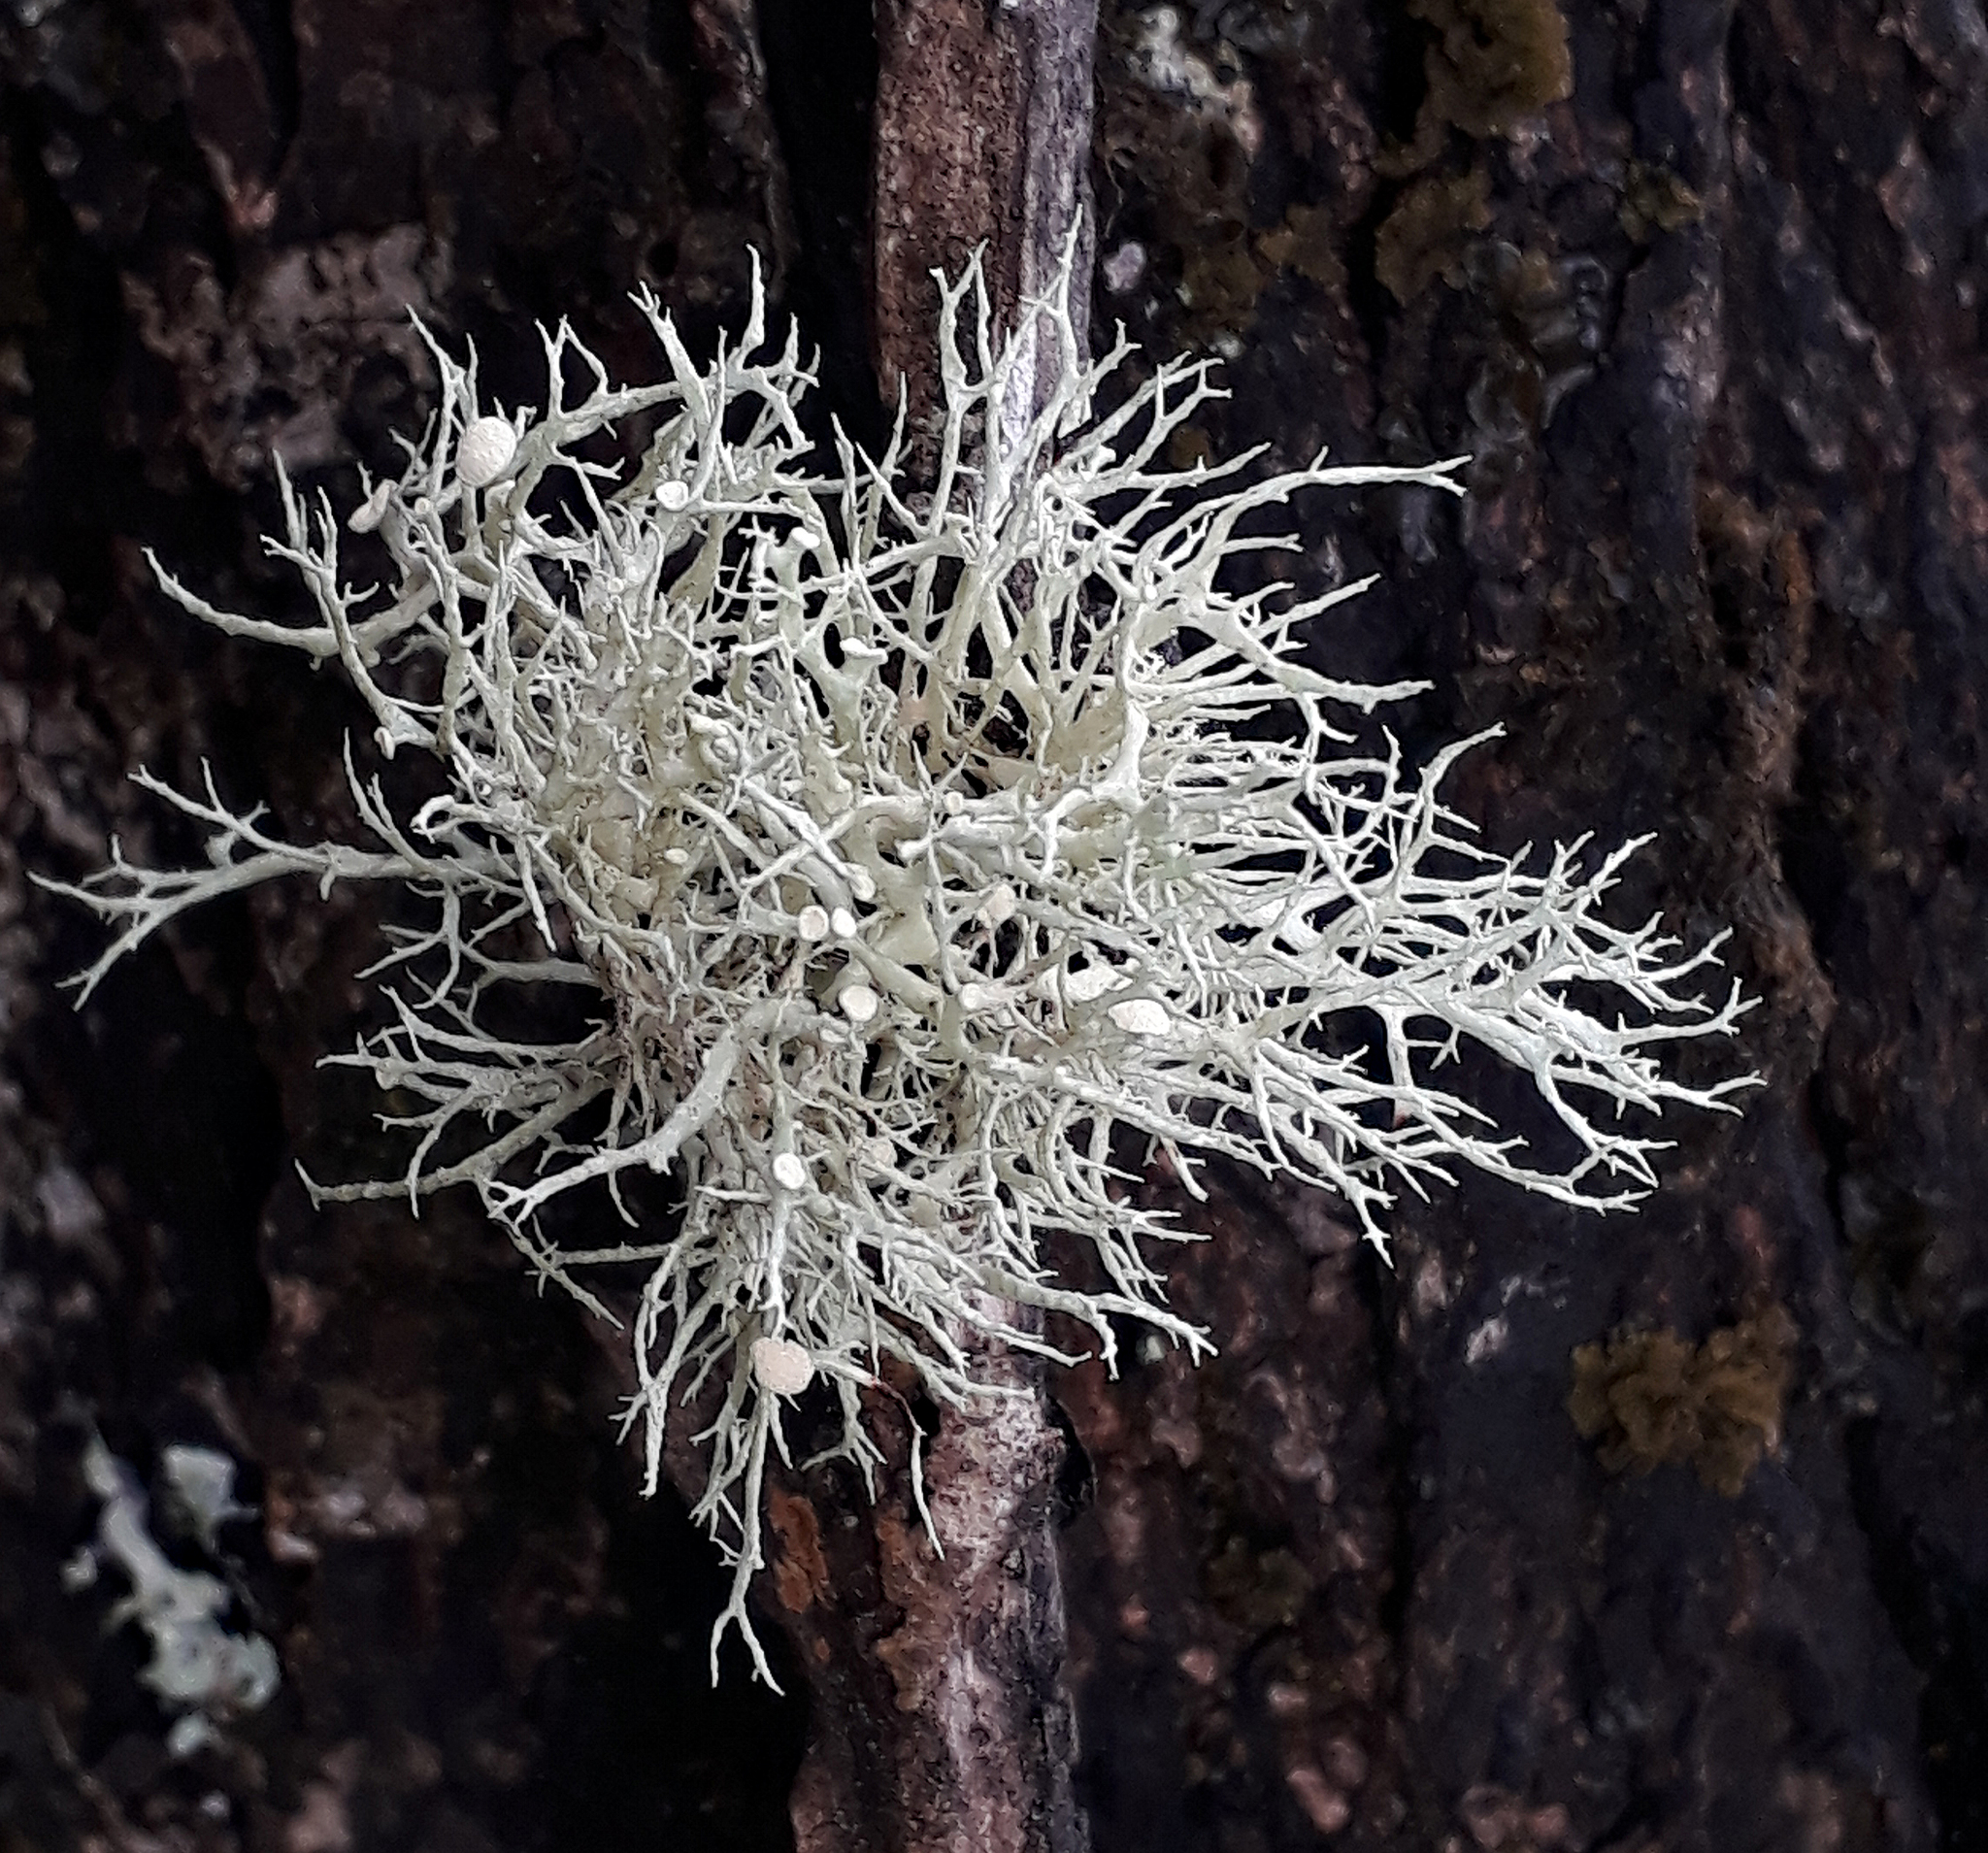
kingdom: Fungi
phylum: Ascomycota
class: Lecanoromycetes
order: Lecanorales
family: Ramalinaceae
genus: Ramalina
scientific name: Ramalina inflata
